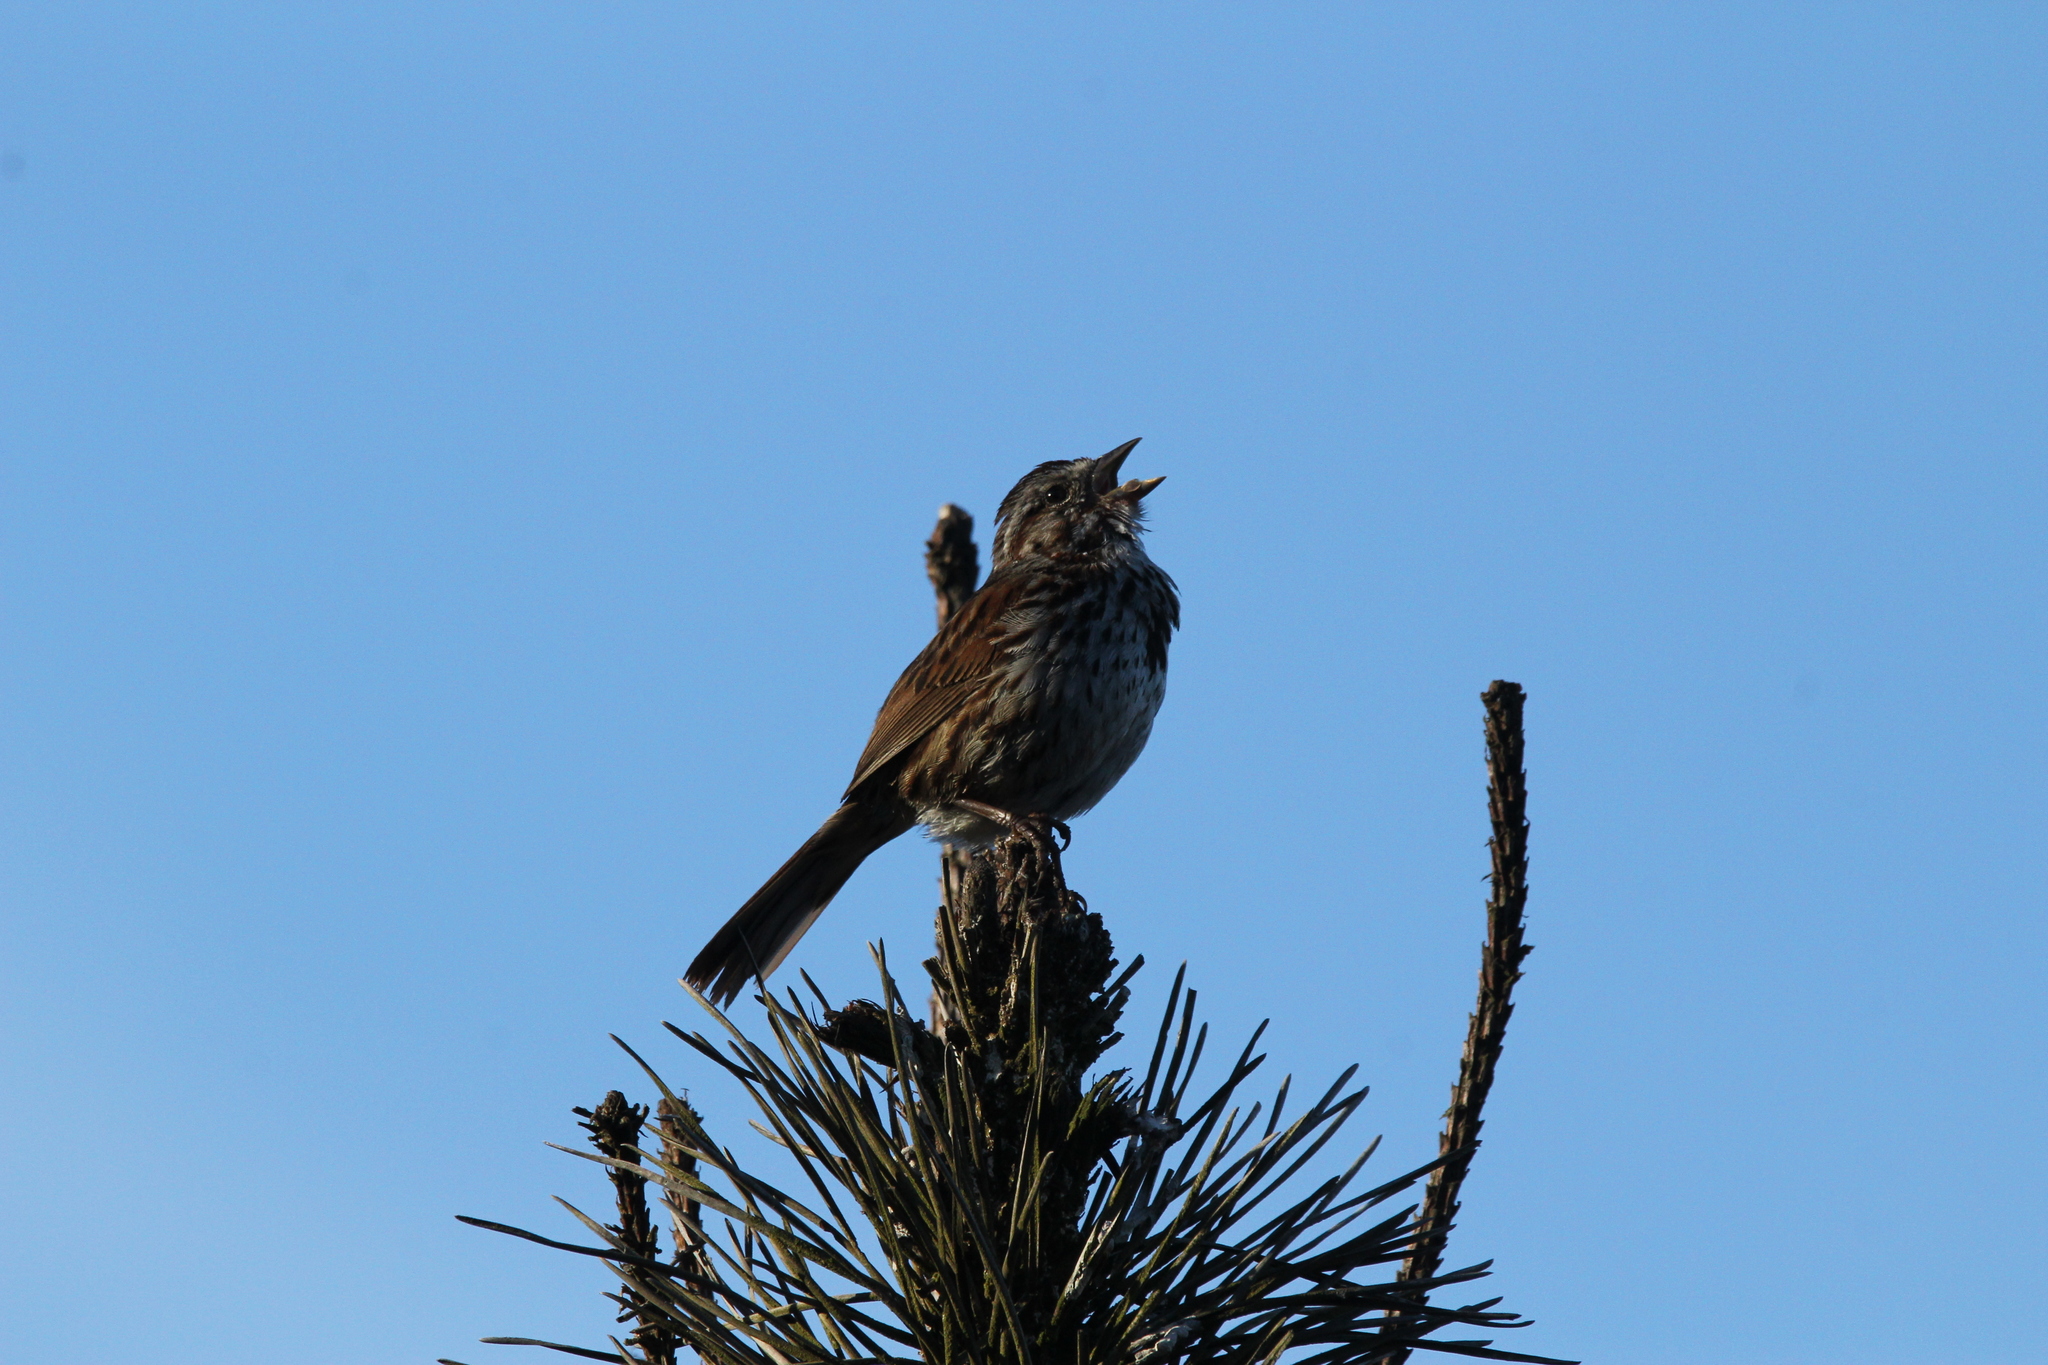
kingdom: Animalia
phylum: Chordata
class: Aves
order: Passeriformes
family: Passerellidae
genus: Melospiza
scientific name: Melospiza melodia
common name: Song sparrow
